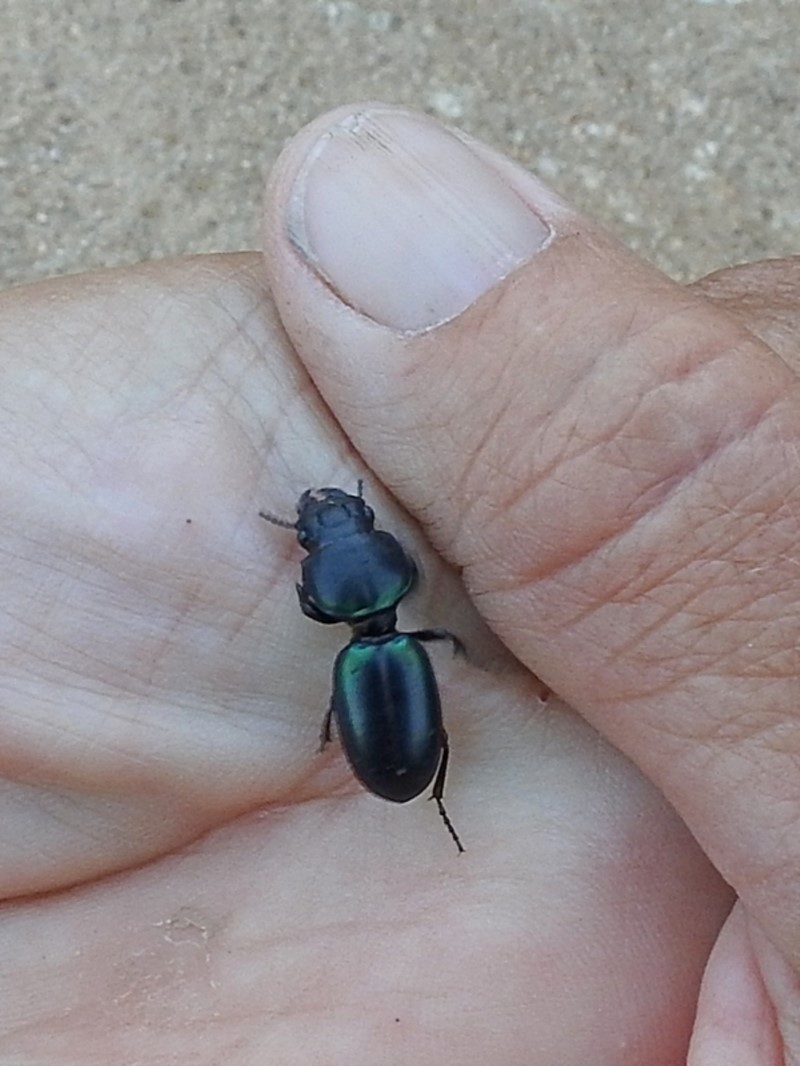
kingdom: Animalia
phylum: Arthropoda
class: Insecta
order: Coleoptera
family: Carabidae
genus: Carenum
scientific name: Carenum bonellii
